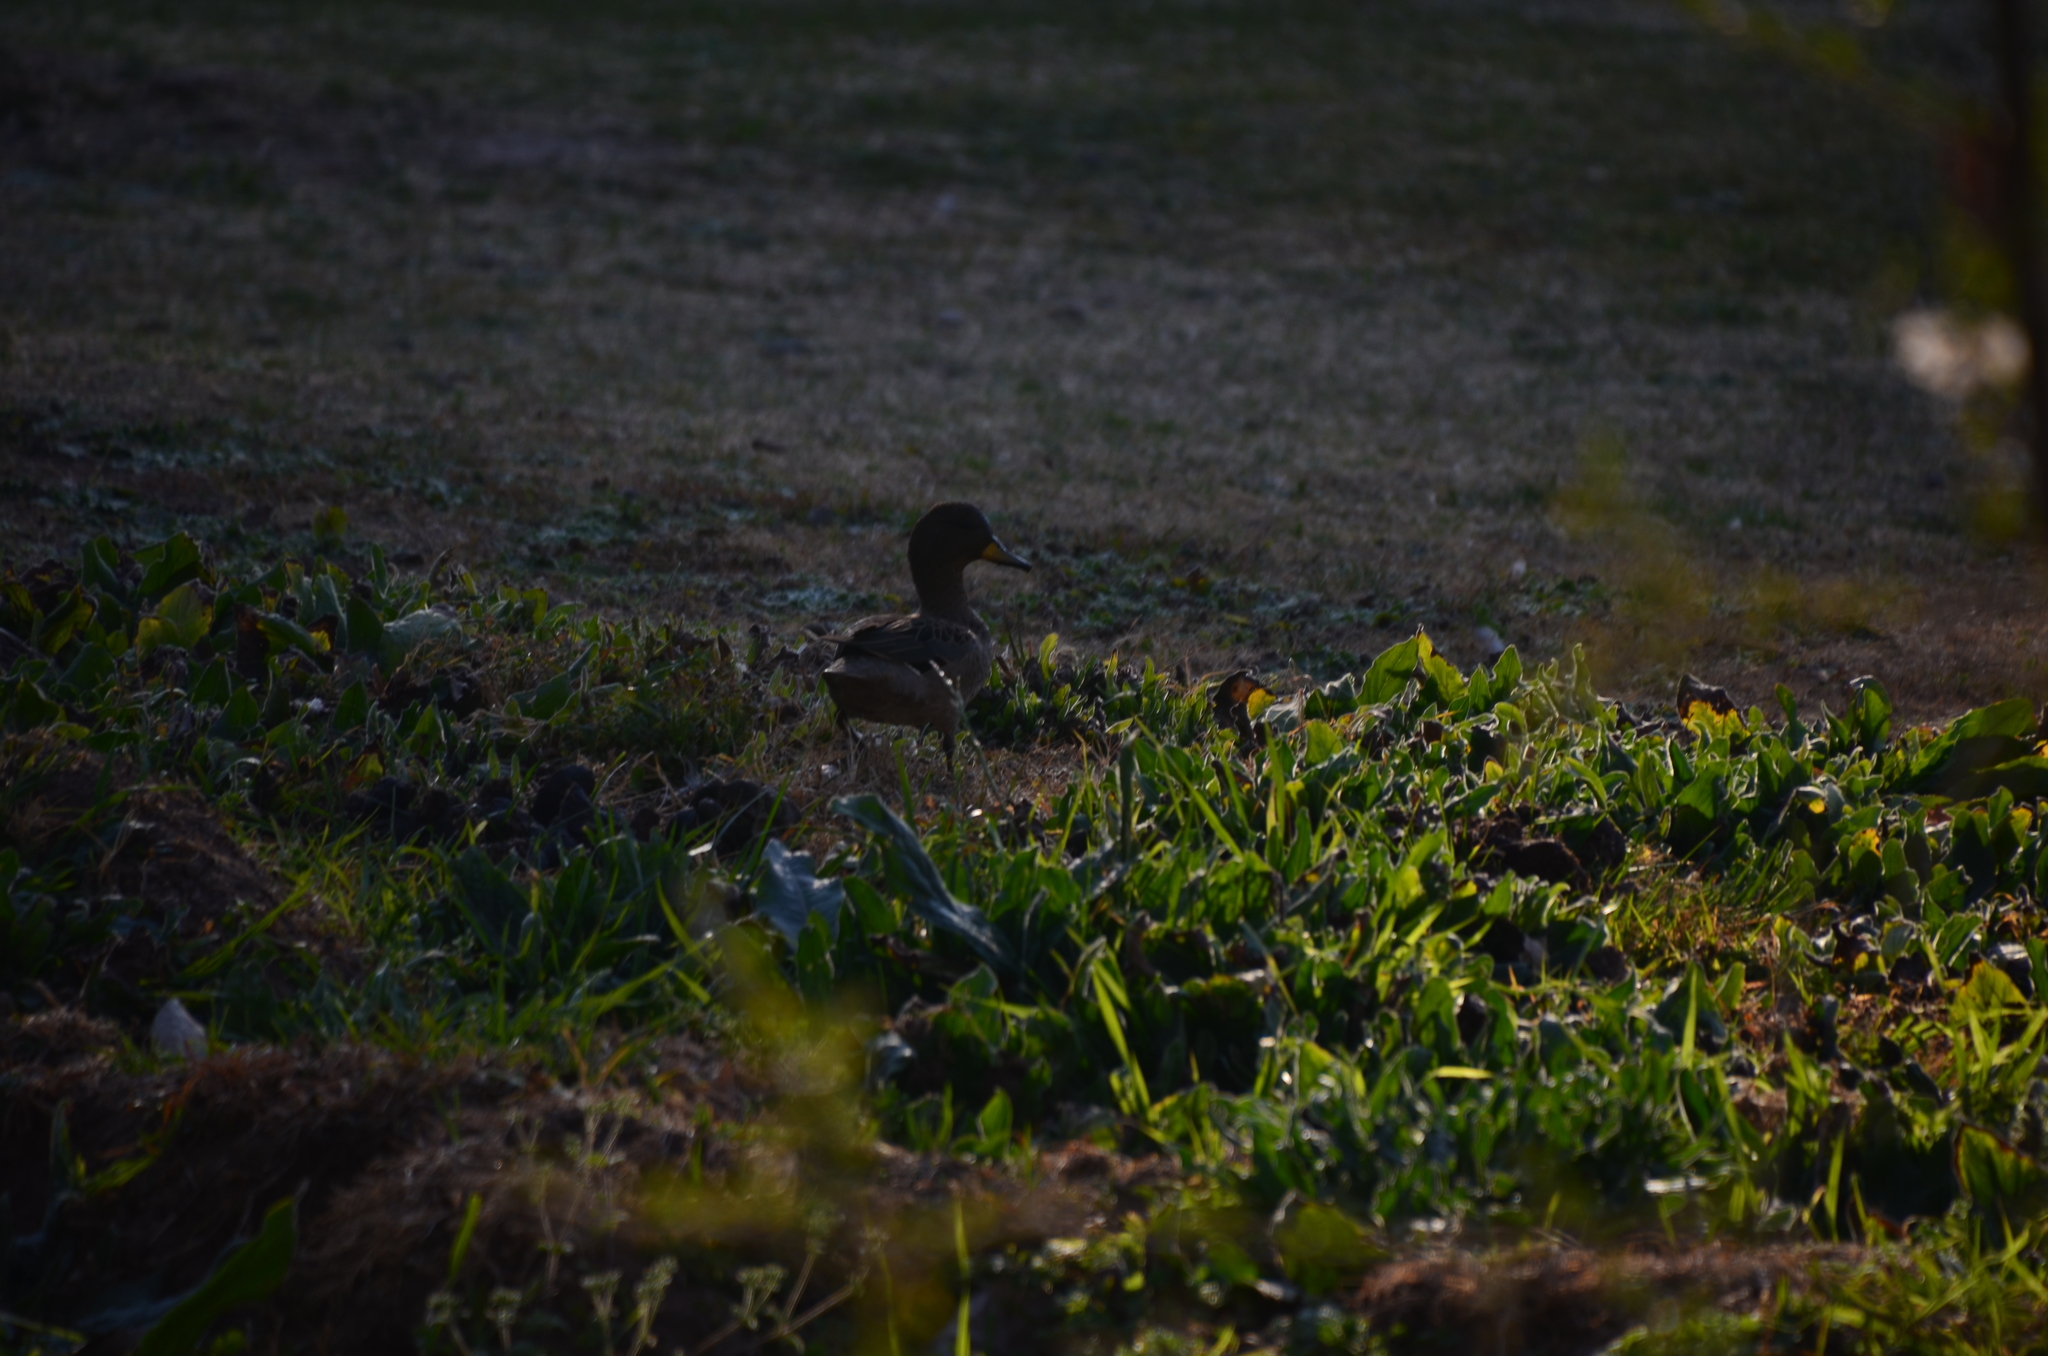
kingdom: Animalia
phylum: Chordata
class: Aves
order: Anseriformes
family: Anatidae
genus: Anas
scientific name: Anas flavirostris
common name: Yellow-billed teal
